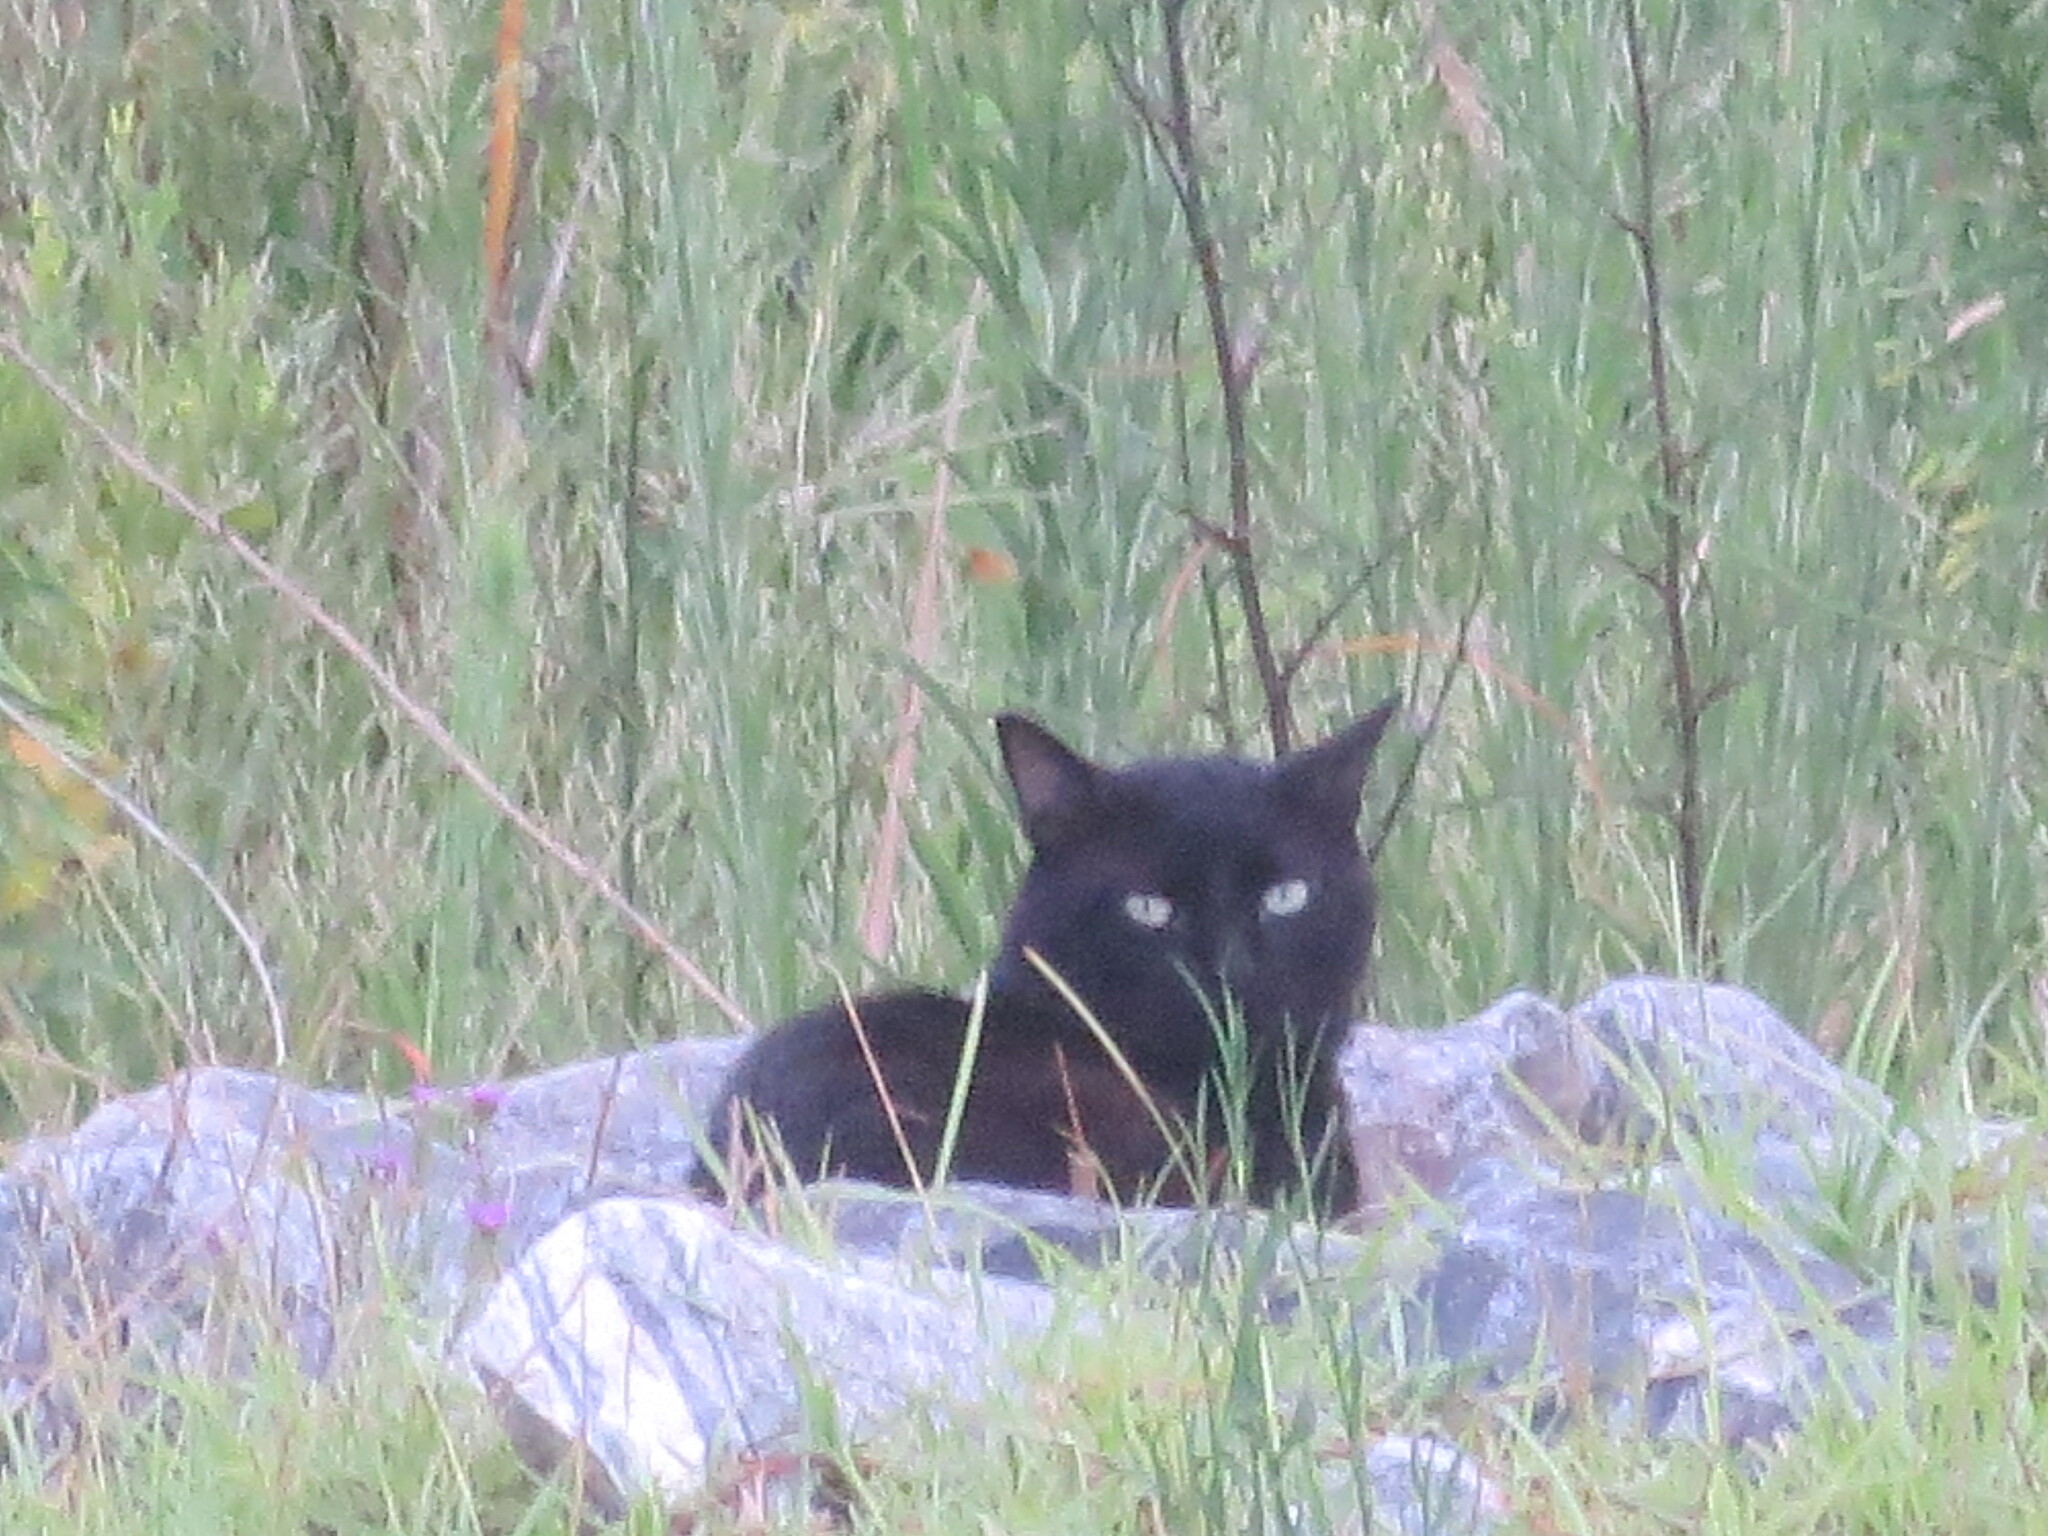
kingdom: Animalia
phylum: Chordata
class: Mammalia
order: Carnivora
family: Felidae
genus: Felis
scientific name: Felis catus
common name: Domestic cat
